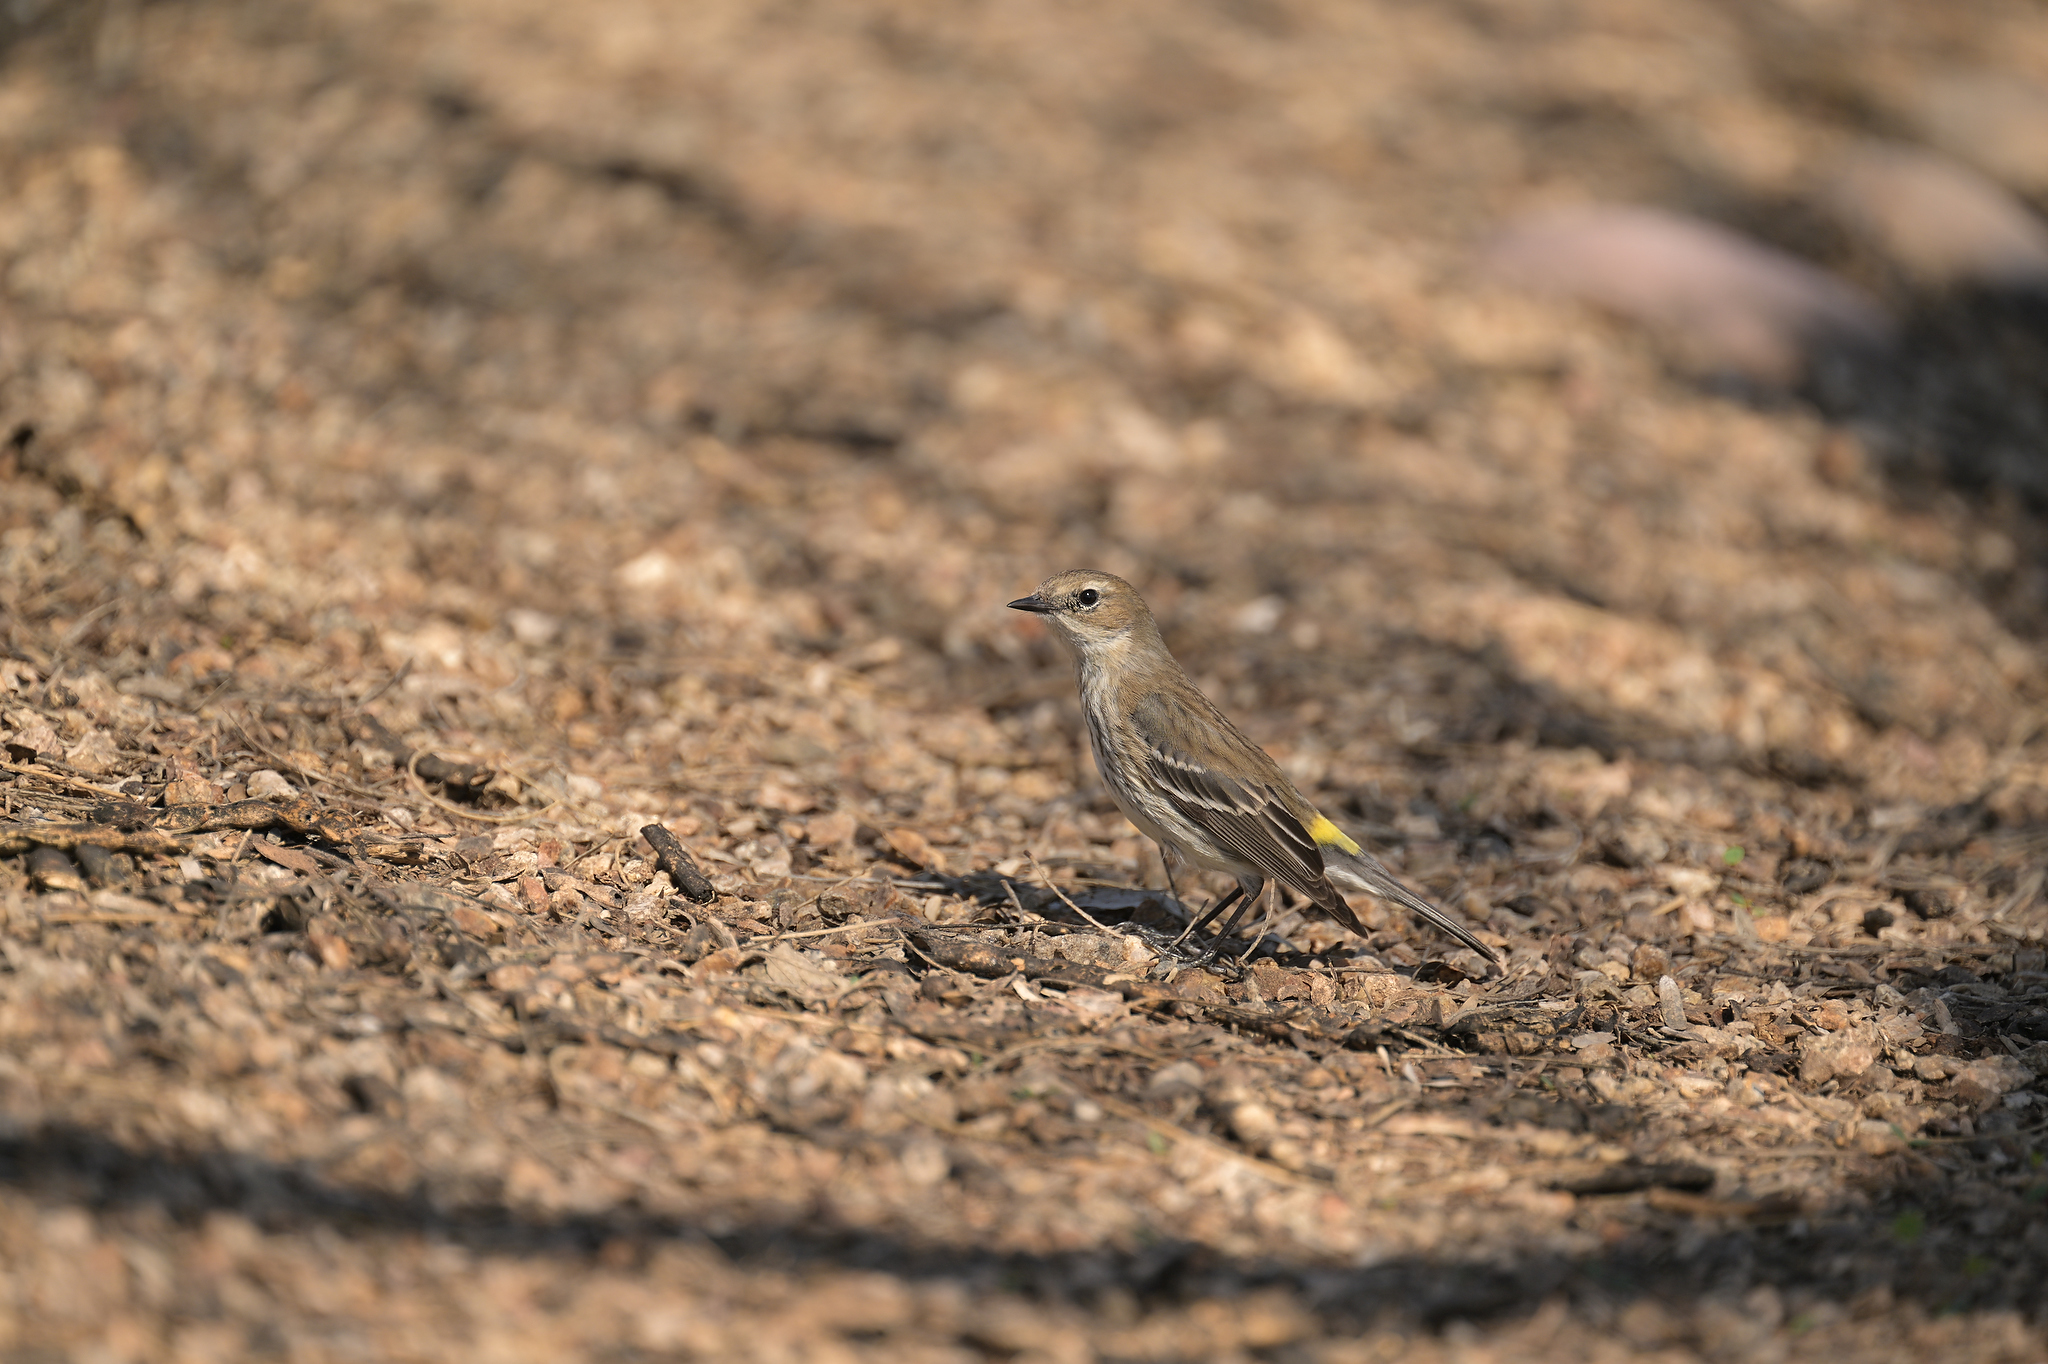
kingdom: Animalia
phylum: Chordata
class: Aves
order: Passeriformes
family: Parulidae
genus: Setophaga
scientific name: Setophaga coronata
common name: Myrtle warbler
